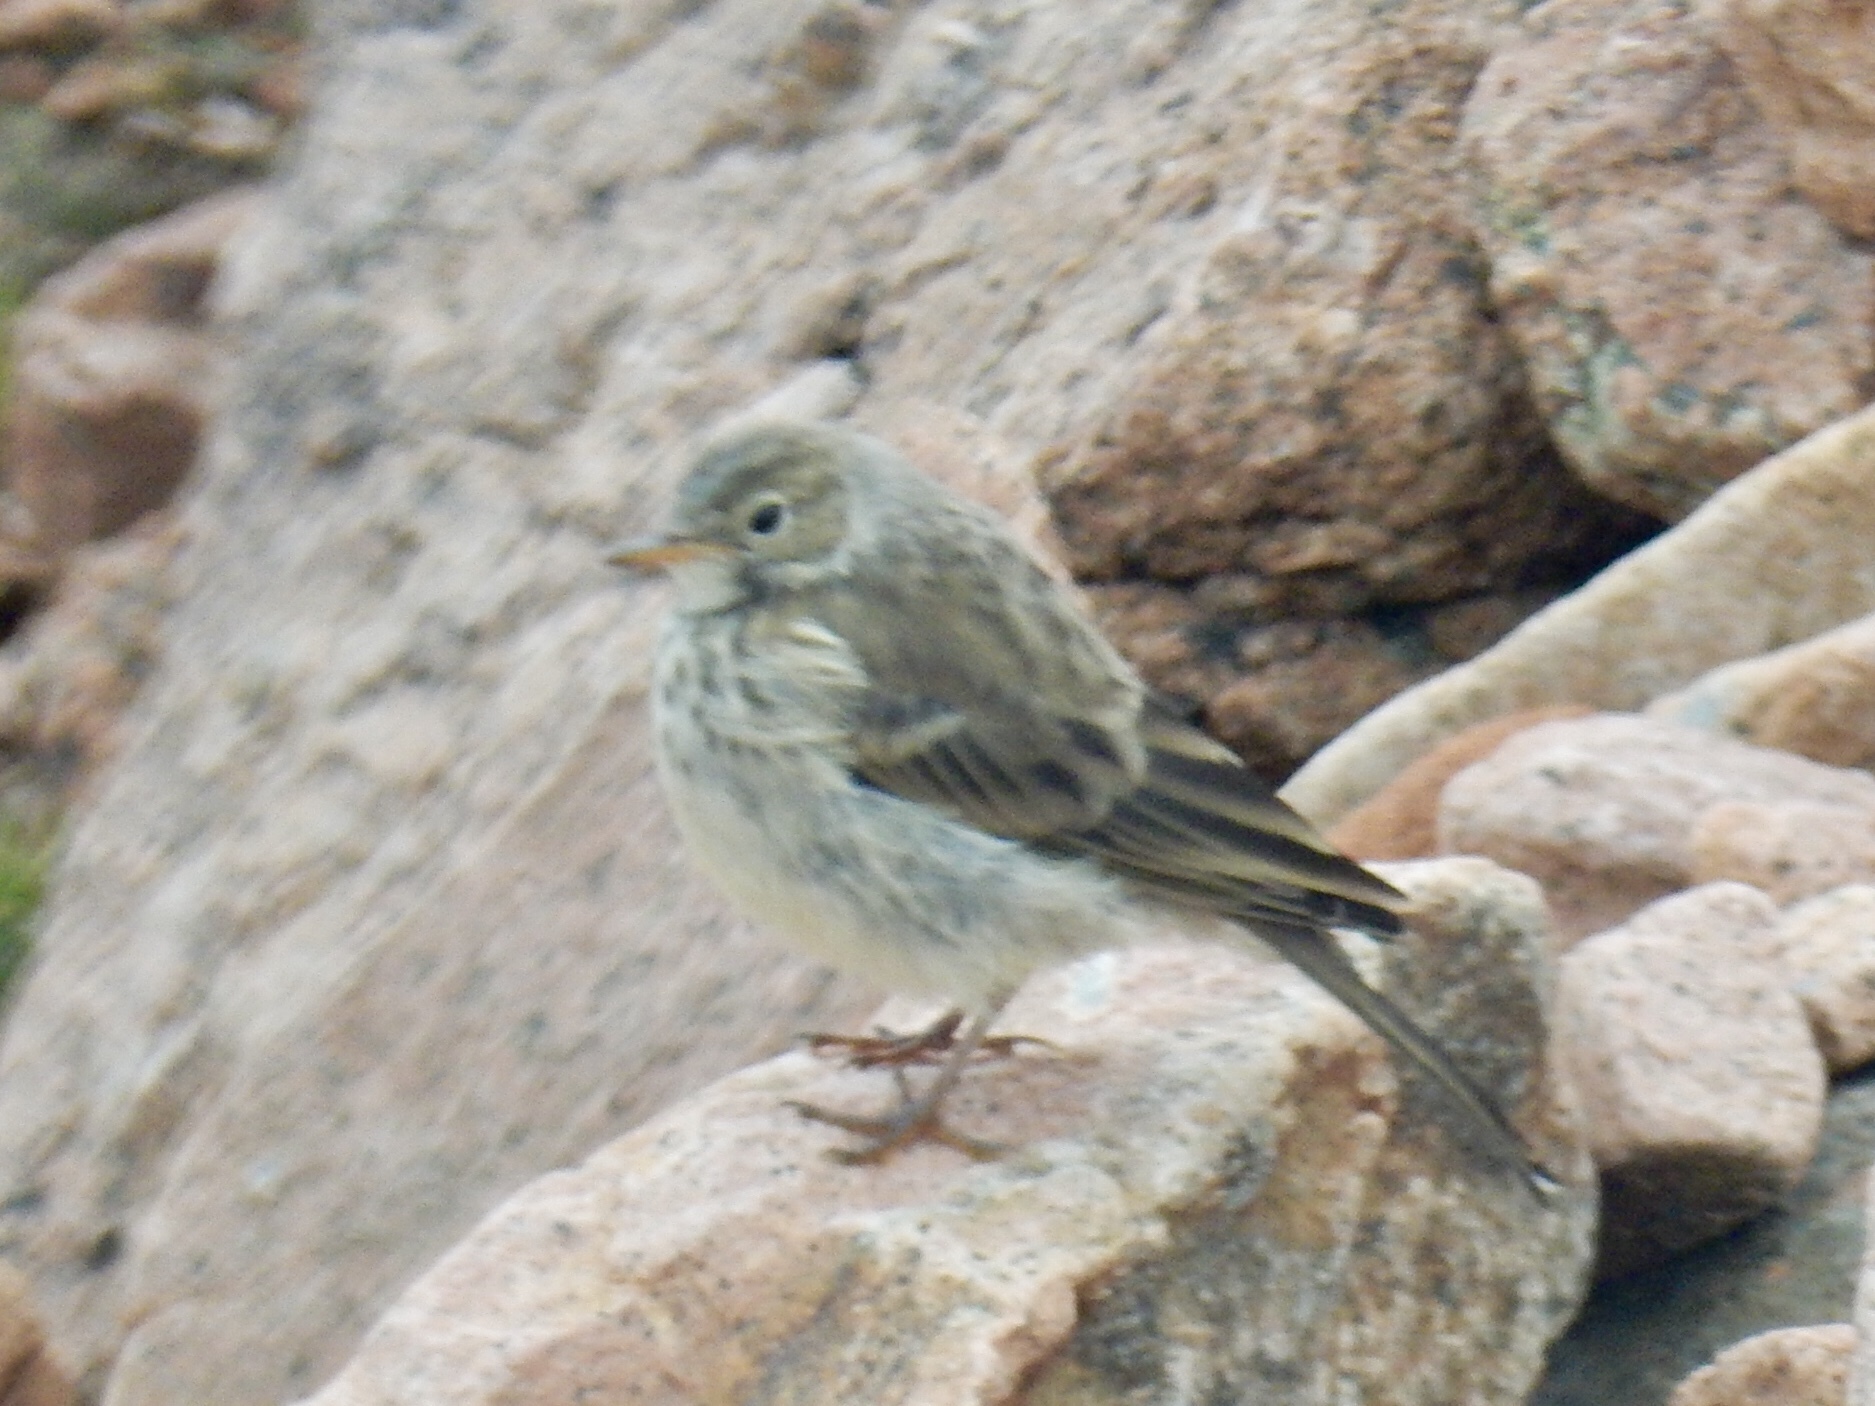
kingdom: Animalia
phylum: Chordata
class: Aves
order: Passeriformes
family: Motacillidae
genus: Anthus
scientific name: Anthus rubescens
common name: Buff-bellied pipit
